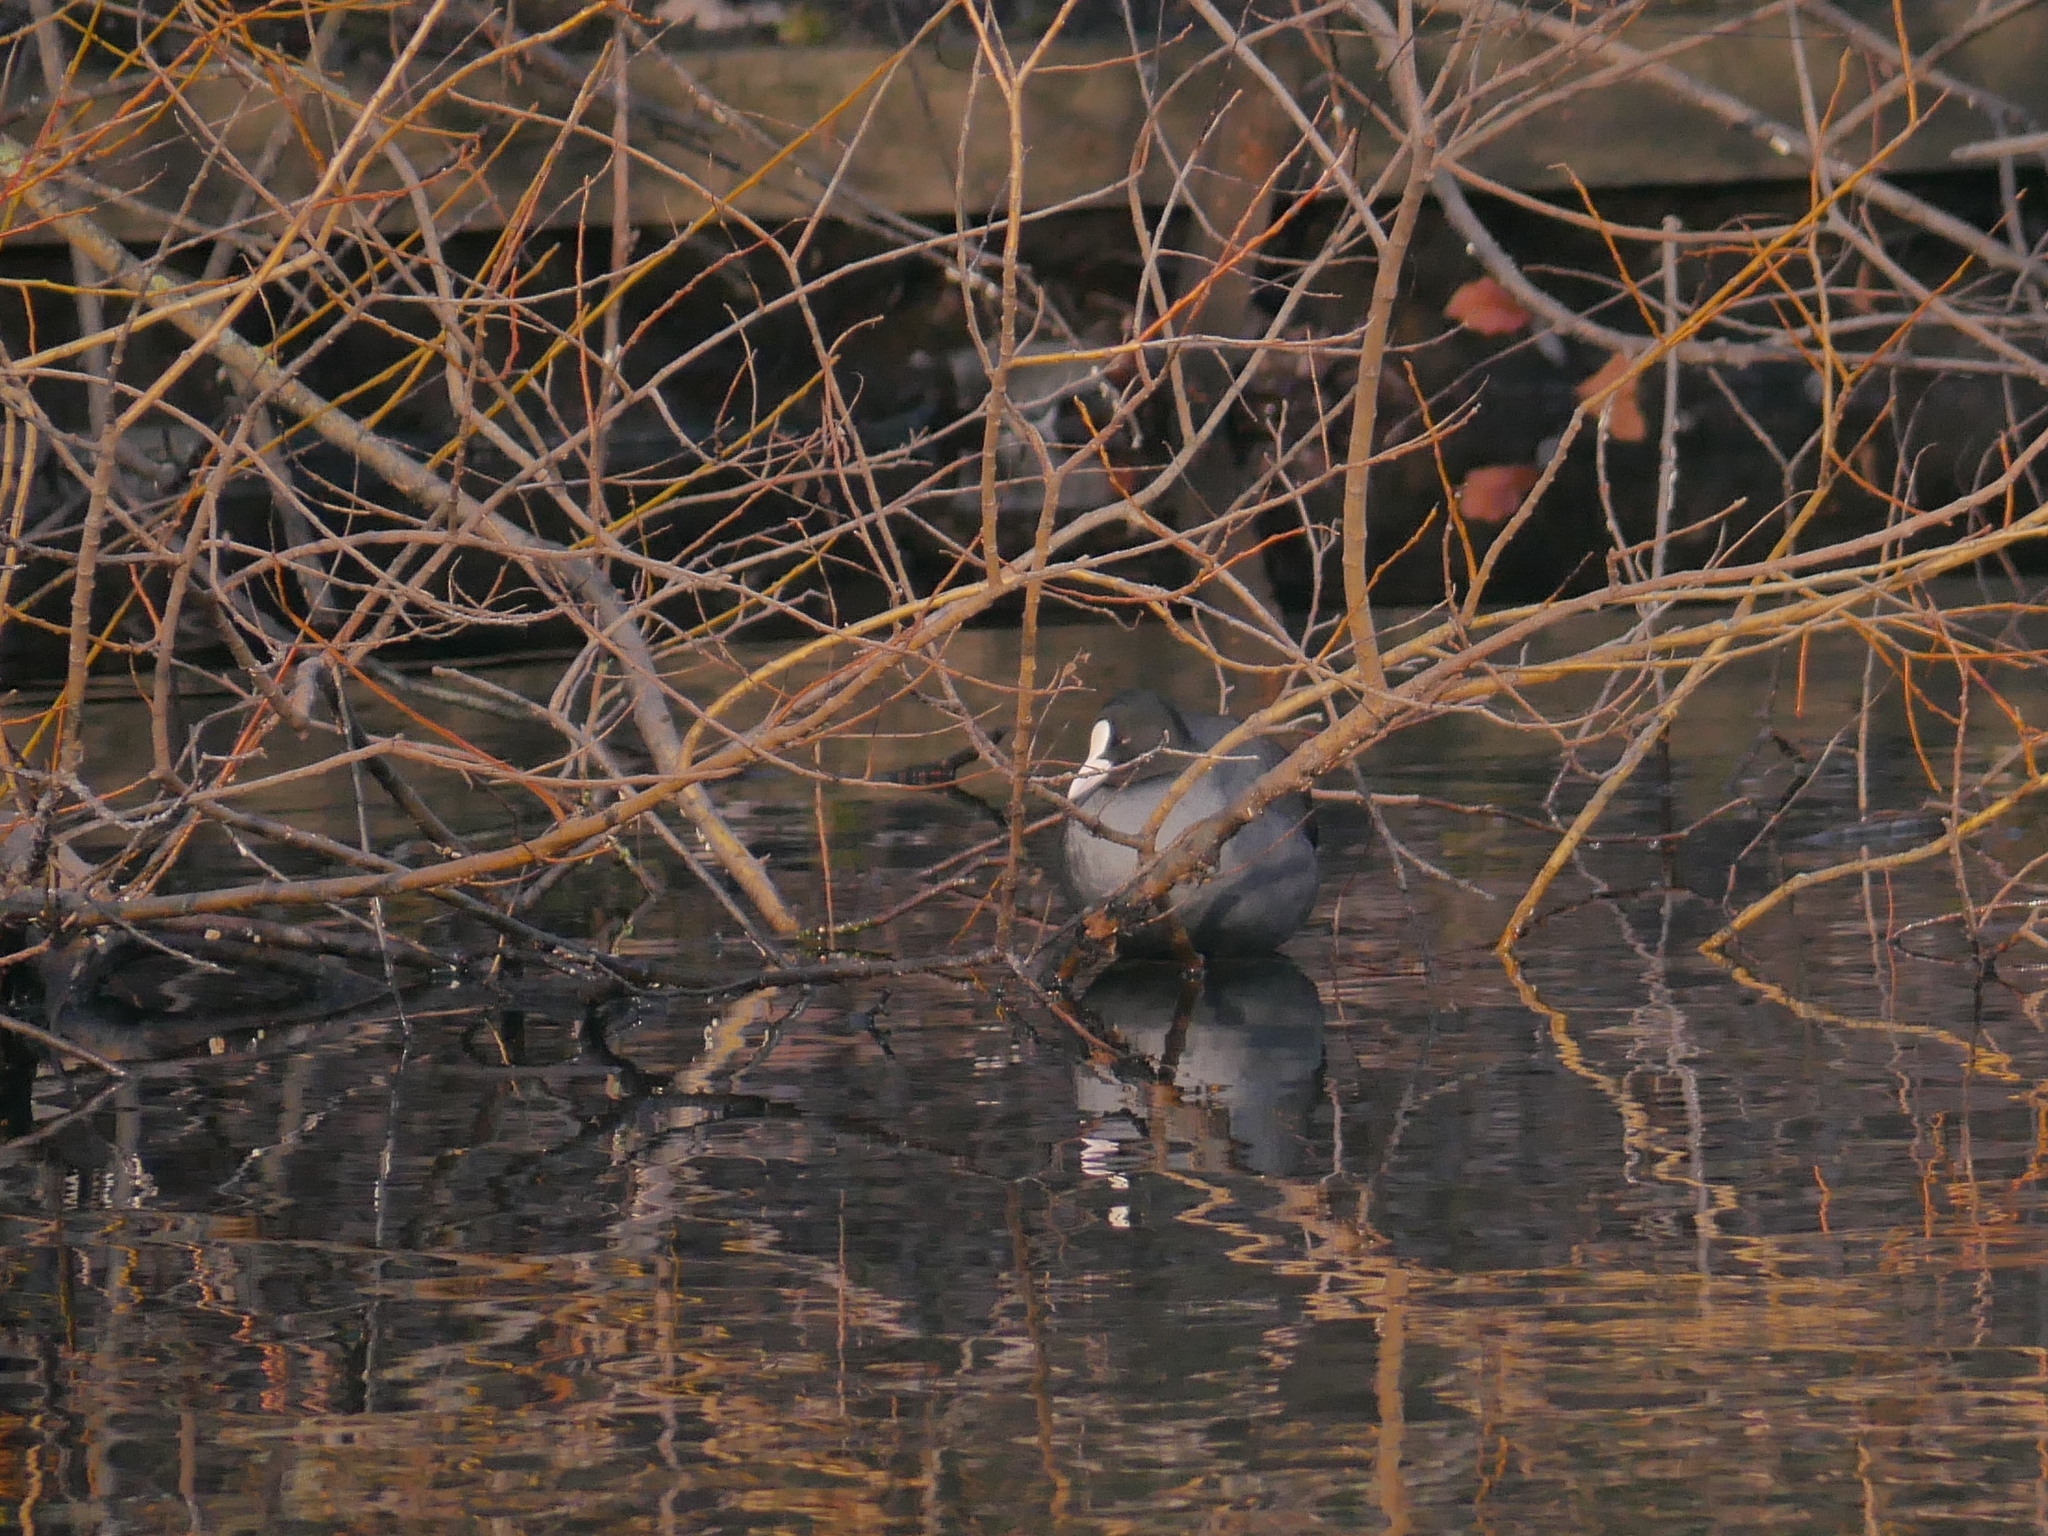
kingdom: Animalia
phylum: Chordata
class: Aves
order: Gruiformes
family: Rallidae
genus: Fulica
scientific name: Fulica atra
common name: Eurasian coot
